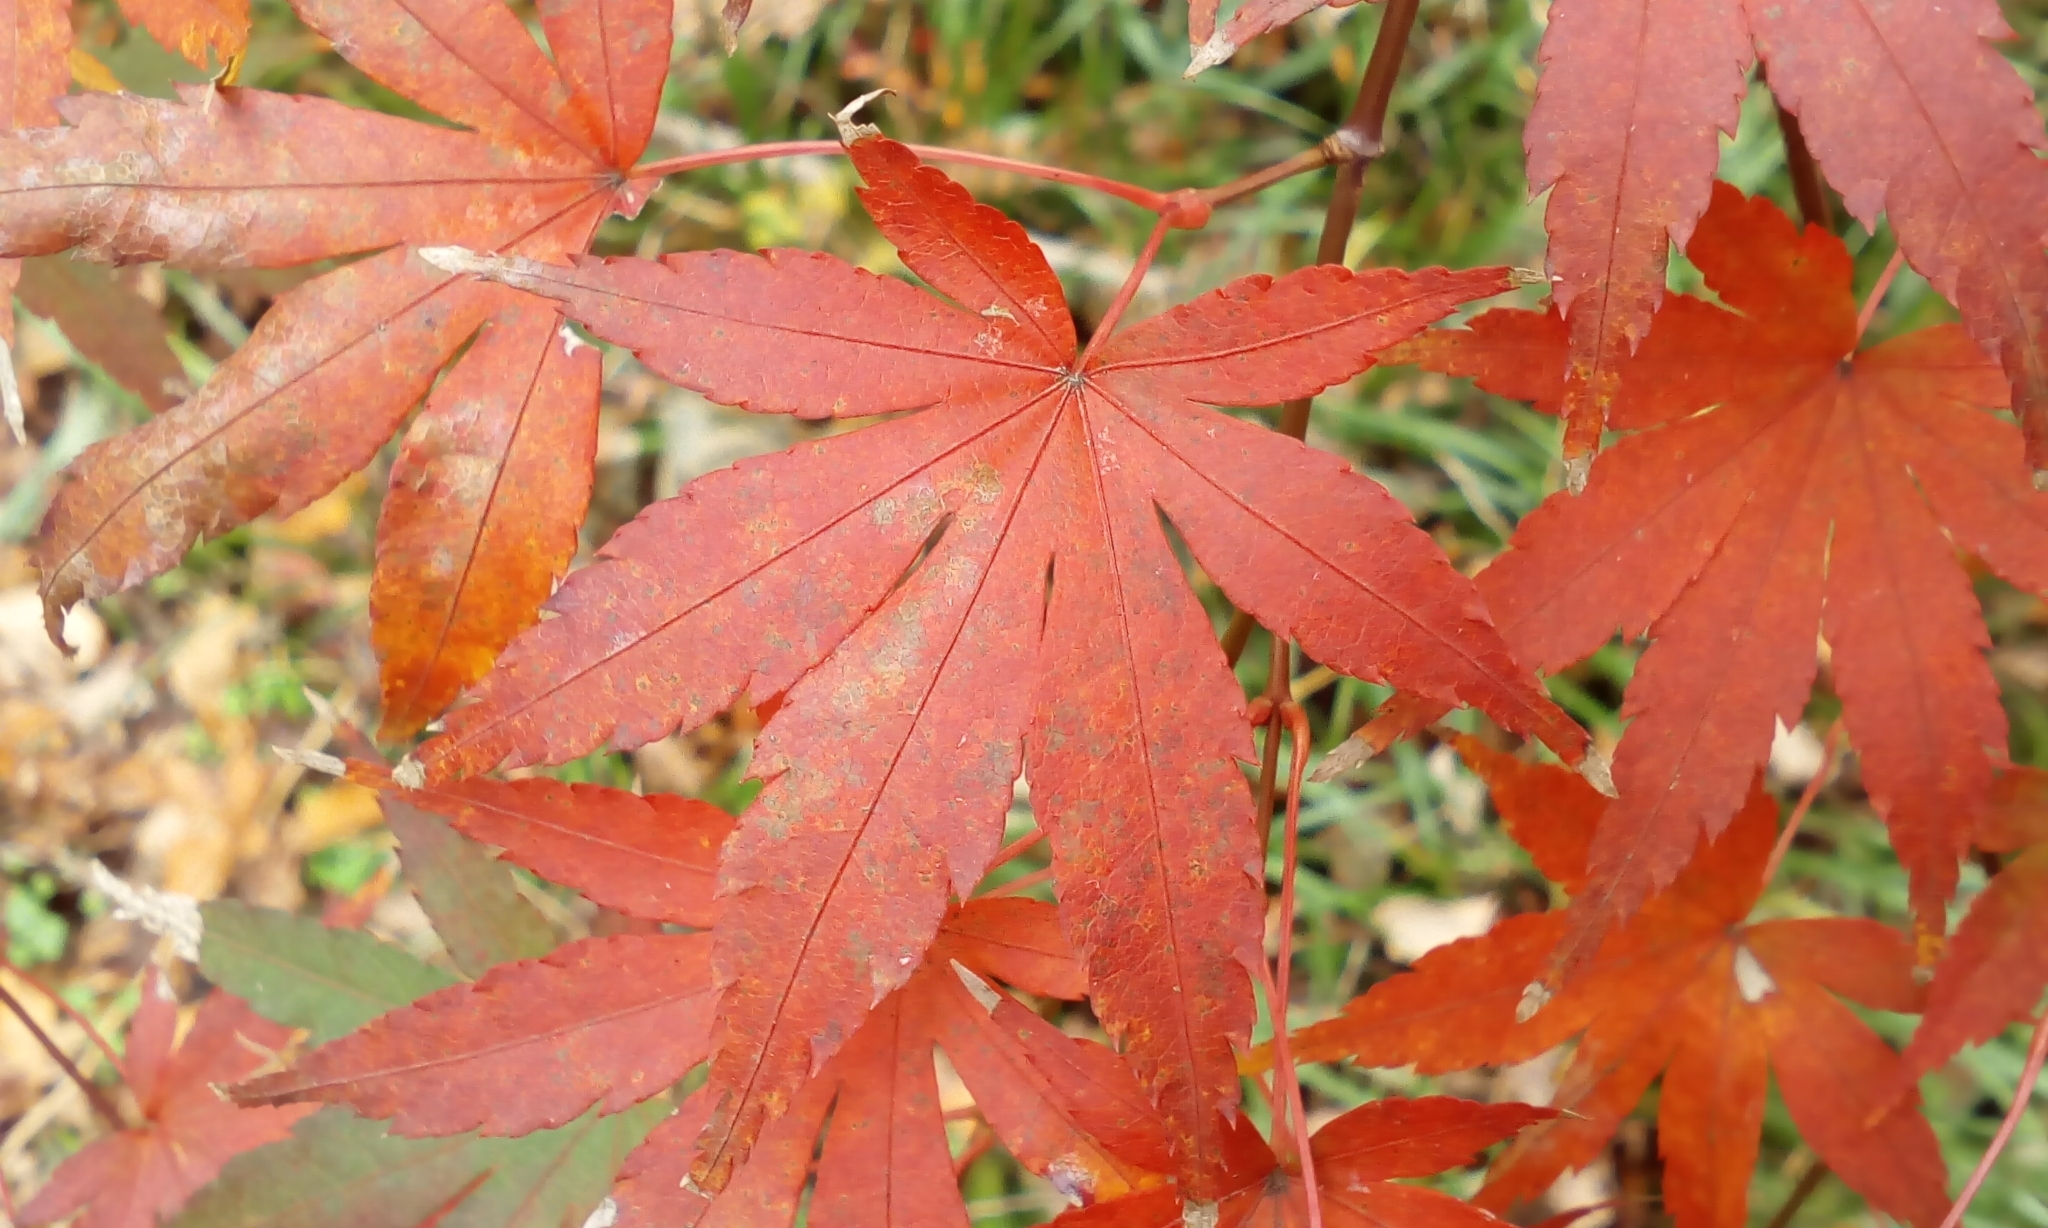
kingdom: Plantae
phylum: Tracheophyta
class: Magnoliopsida
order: Sapindales
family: Sapindaceae
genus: Acer
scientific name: Acer palmatum
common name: Japanese maple
